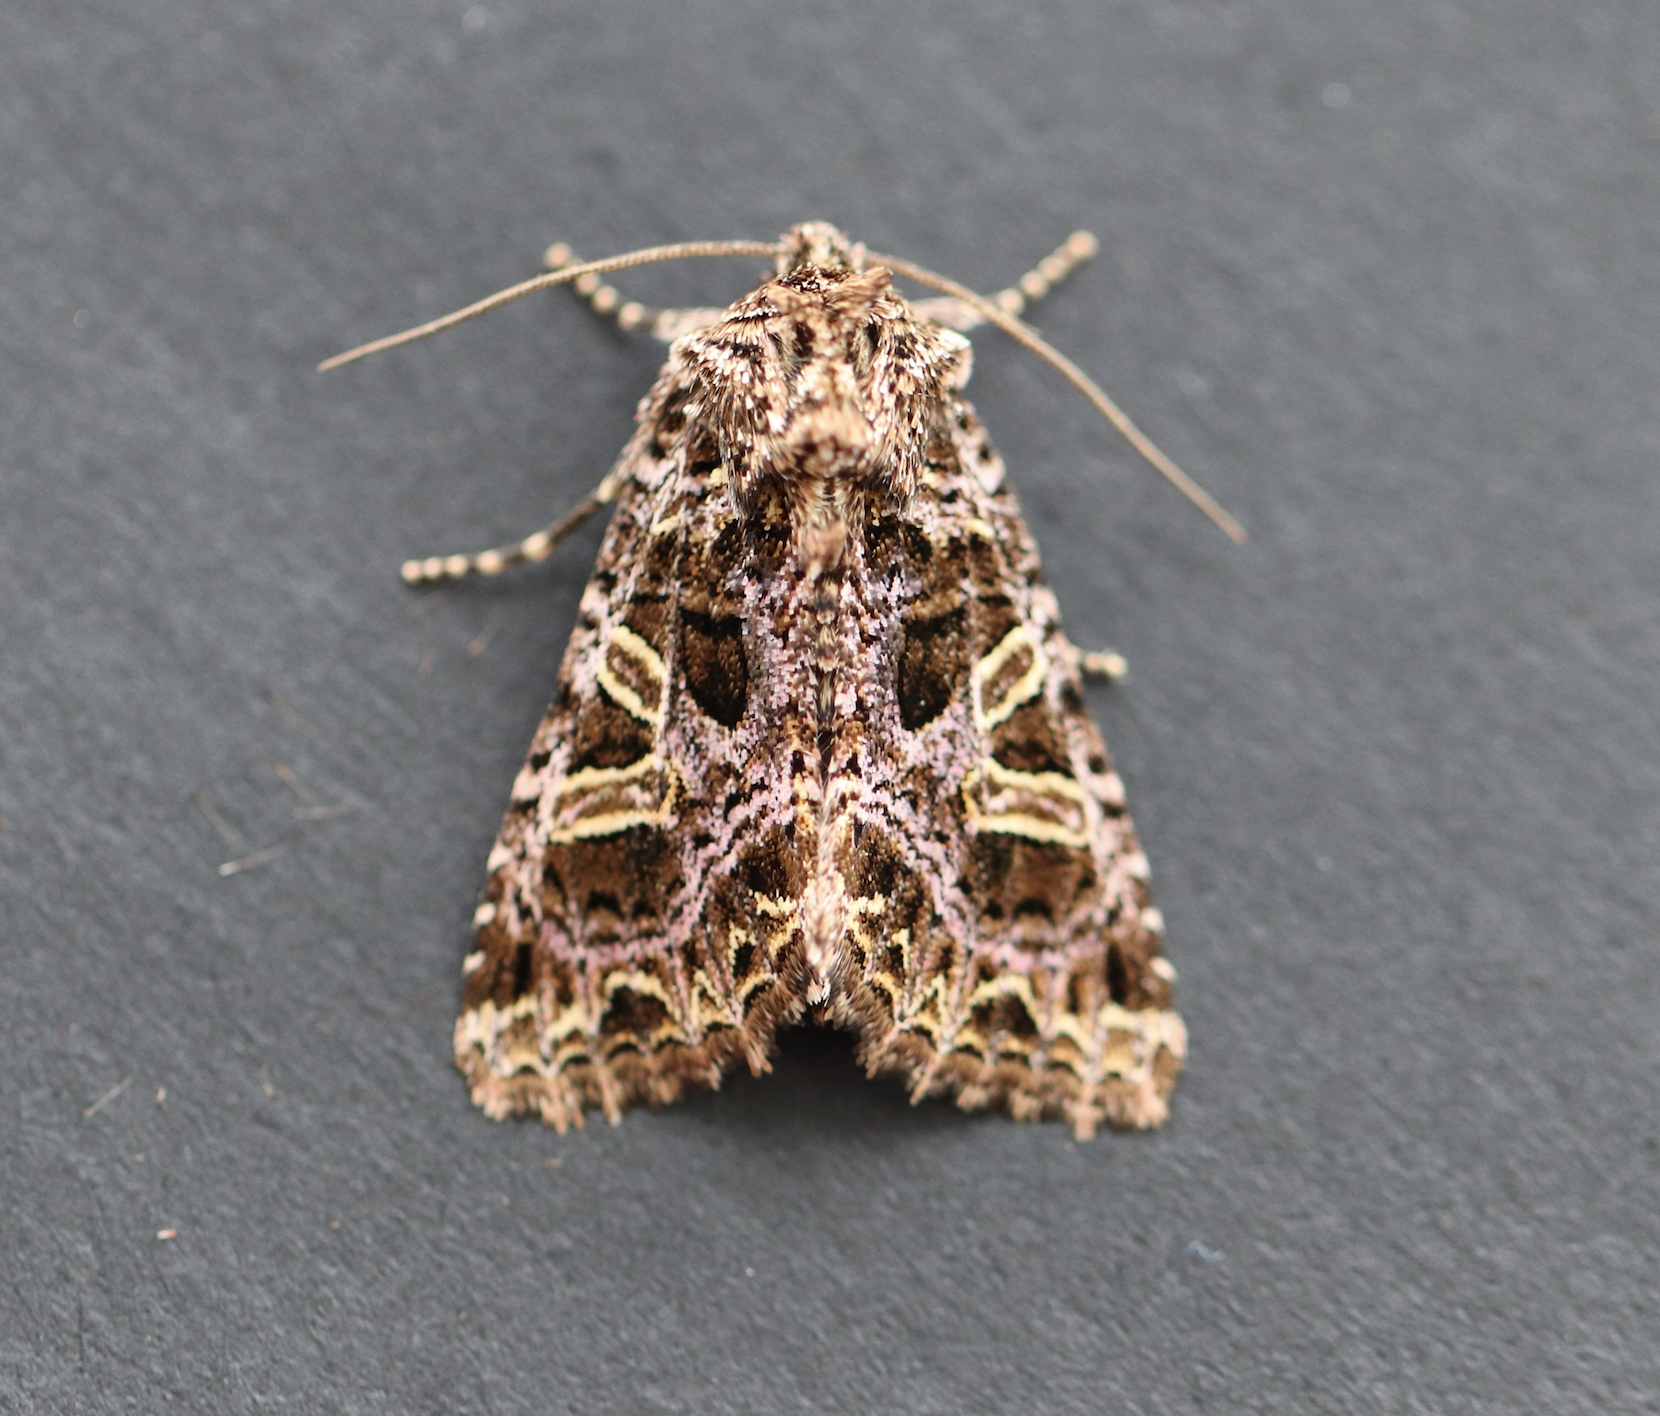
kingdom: Animalia
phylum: Arthropoda
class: Insecta
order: Lepidoptera
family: Noctuidae
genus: Sideridis
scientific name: Sideridis rivularis
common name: Campion
